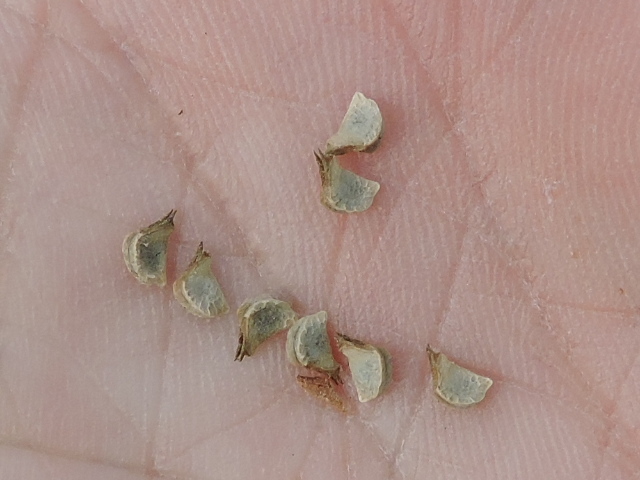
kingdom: Plantae
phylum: Tracheophyta
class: Magnoliopsida
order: Malvales
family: Malvaceae
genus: Sida
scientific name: Sida rhombifolia
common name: Queensland-hemp
